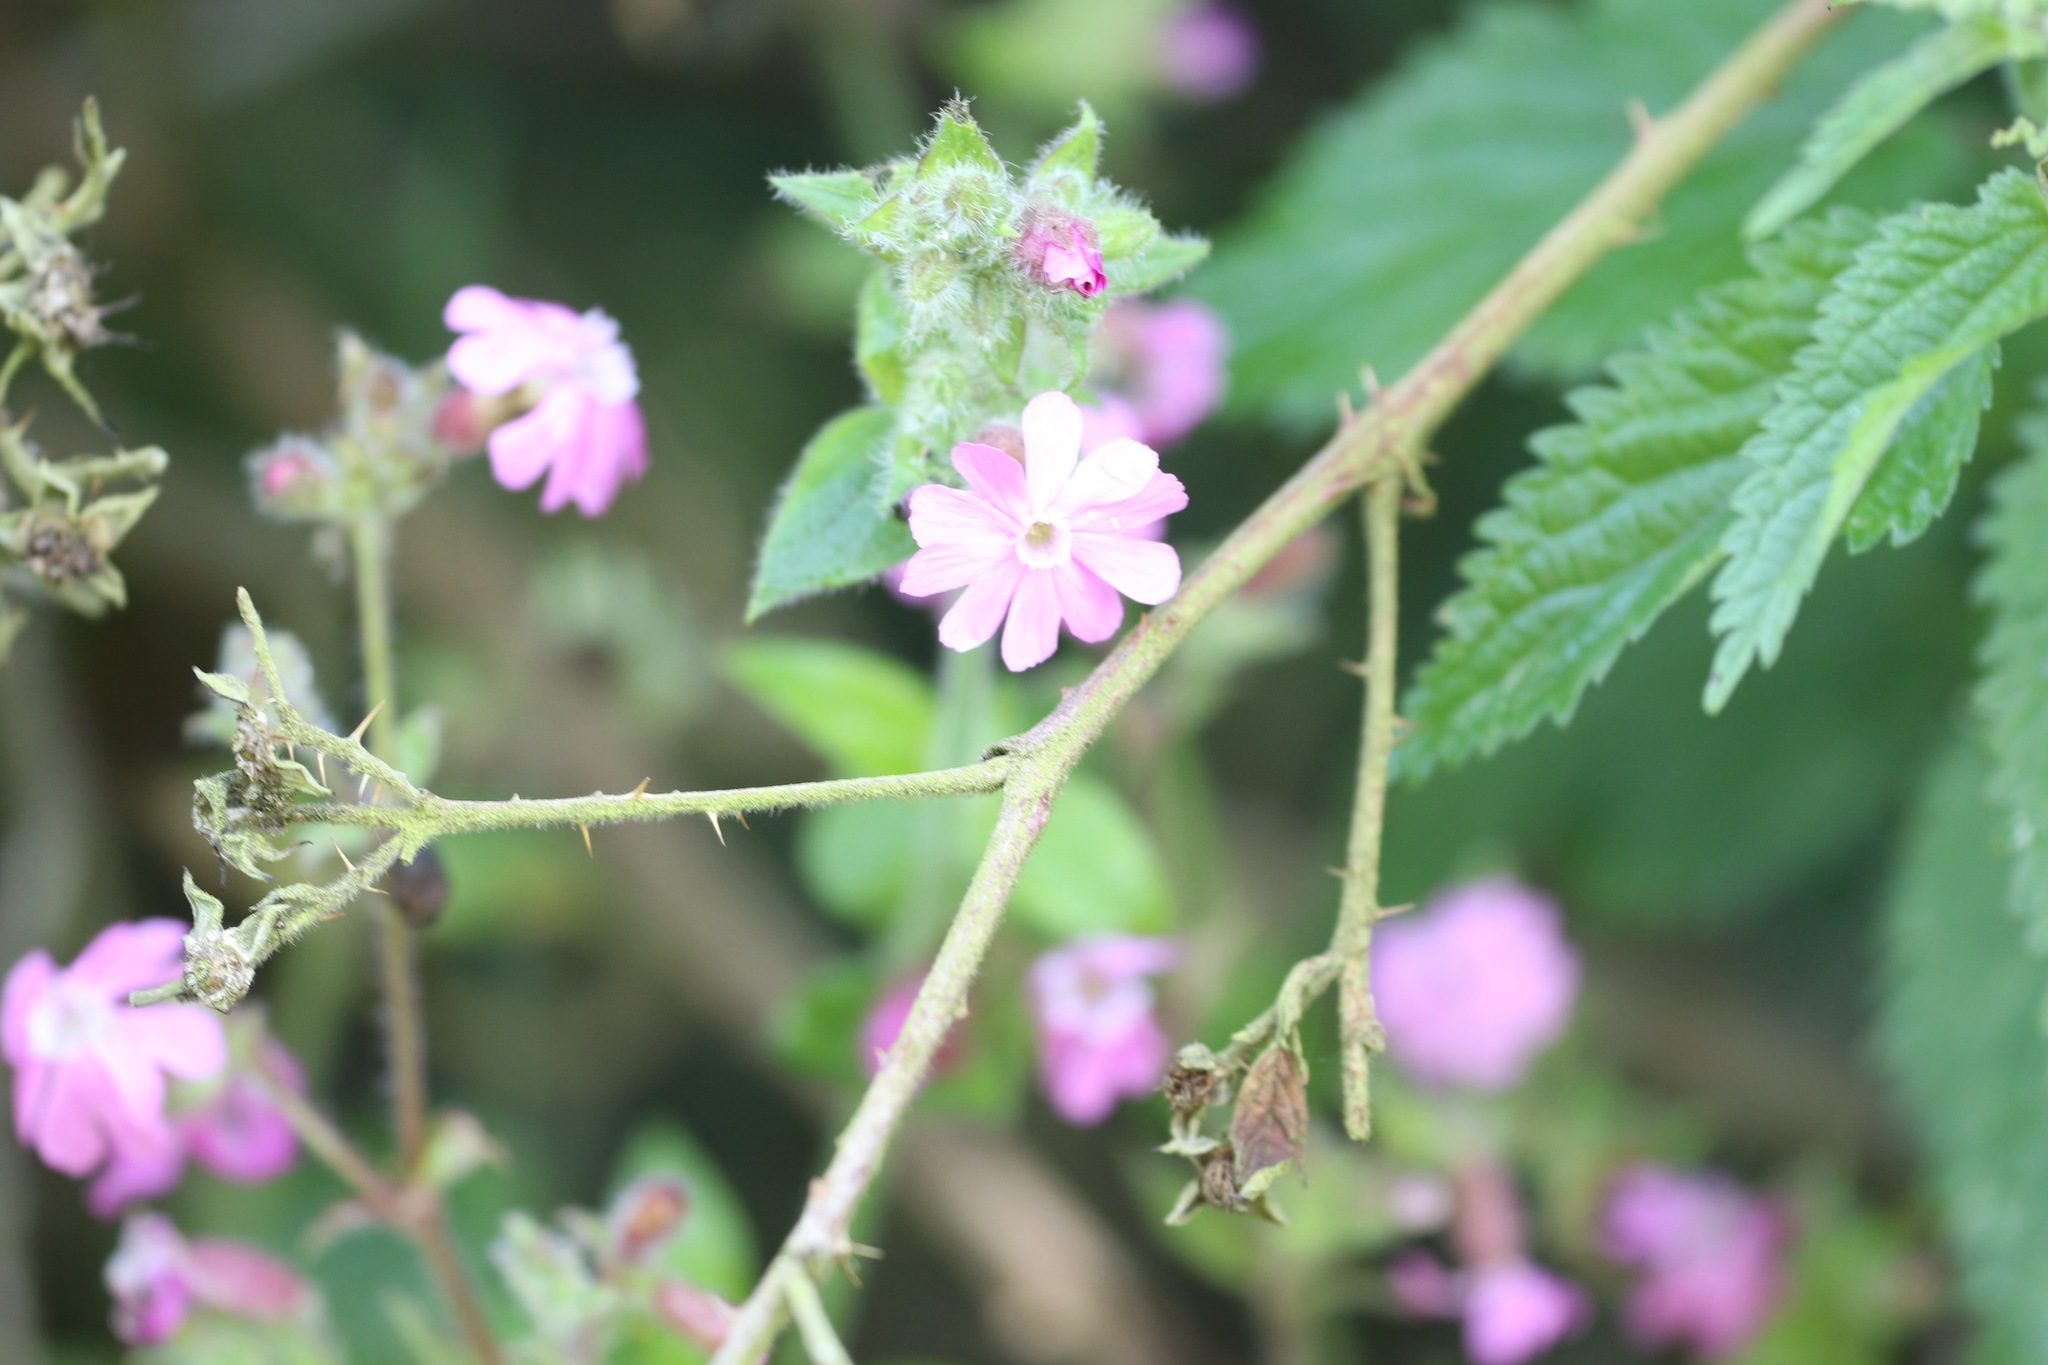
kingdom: Plantae
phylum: Tracheophyta
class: Magnoliopsida
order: Caryophyllales
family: Caryophyllaceae
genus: Silene
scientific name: Silene dioica
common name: Red campion
